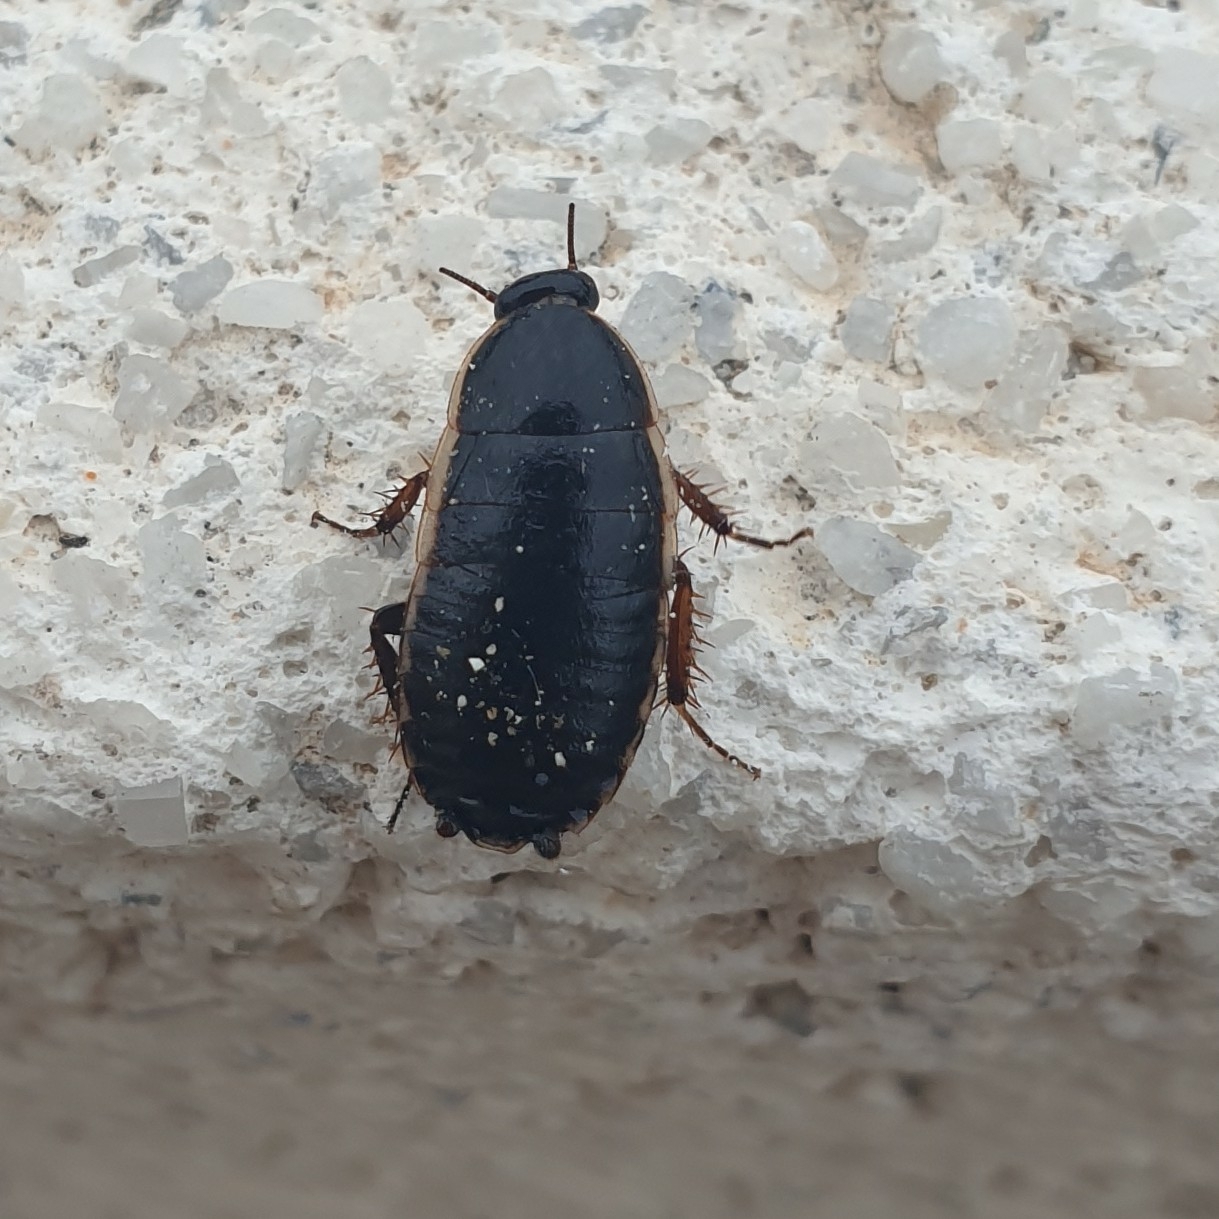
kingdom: Animalia
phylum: Arthropoda
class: Insecta
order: Blattodea
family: Ectobiidae
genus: Loboptera
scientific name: Loboptera decipiens
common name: Lobe-winged cockroach
